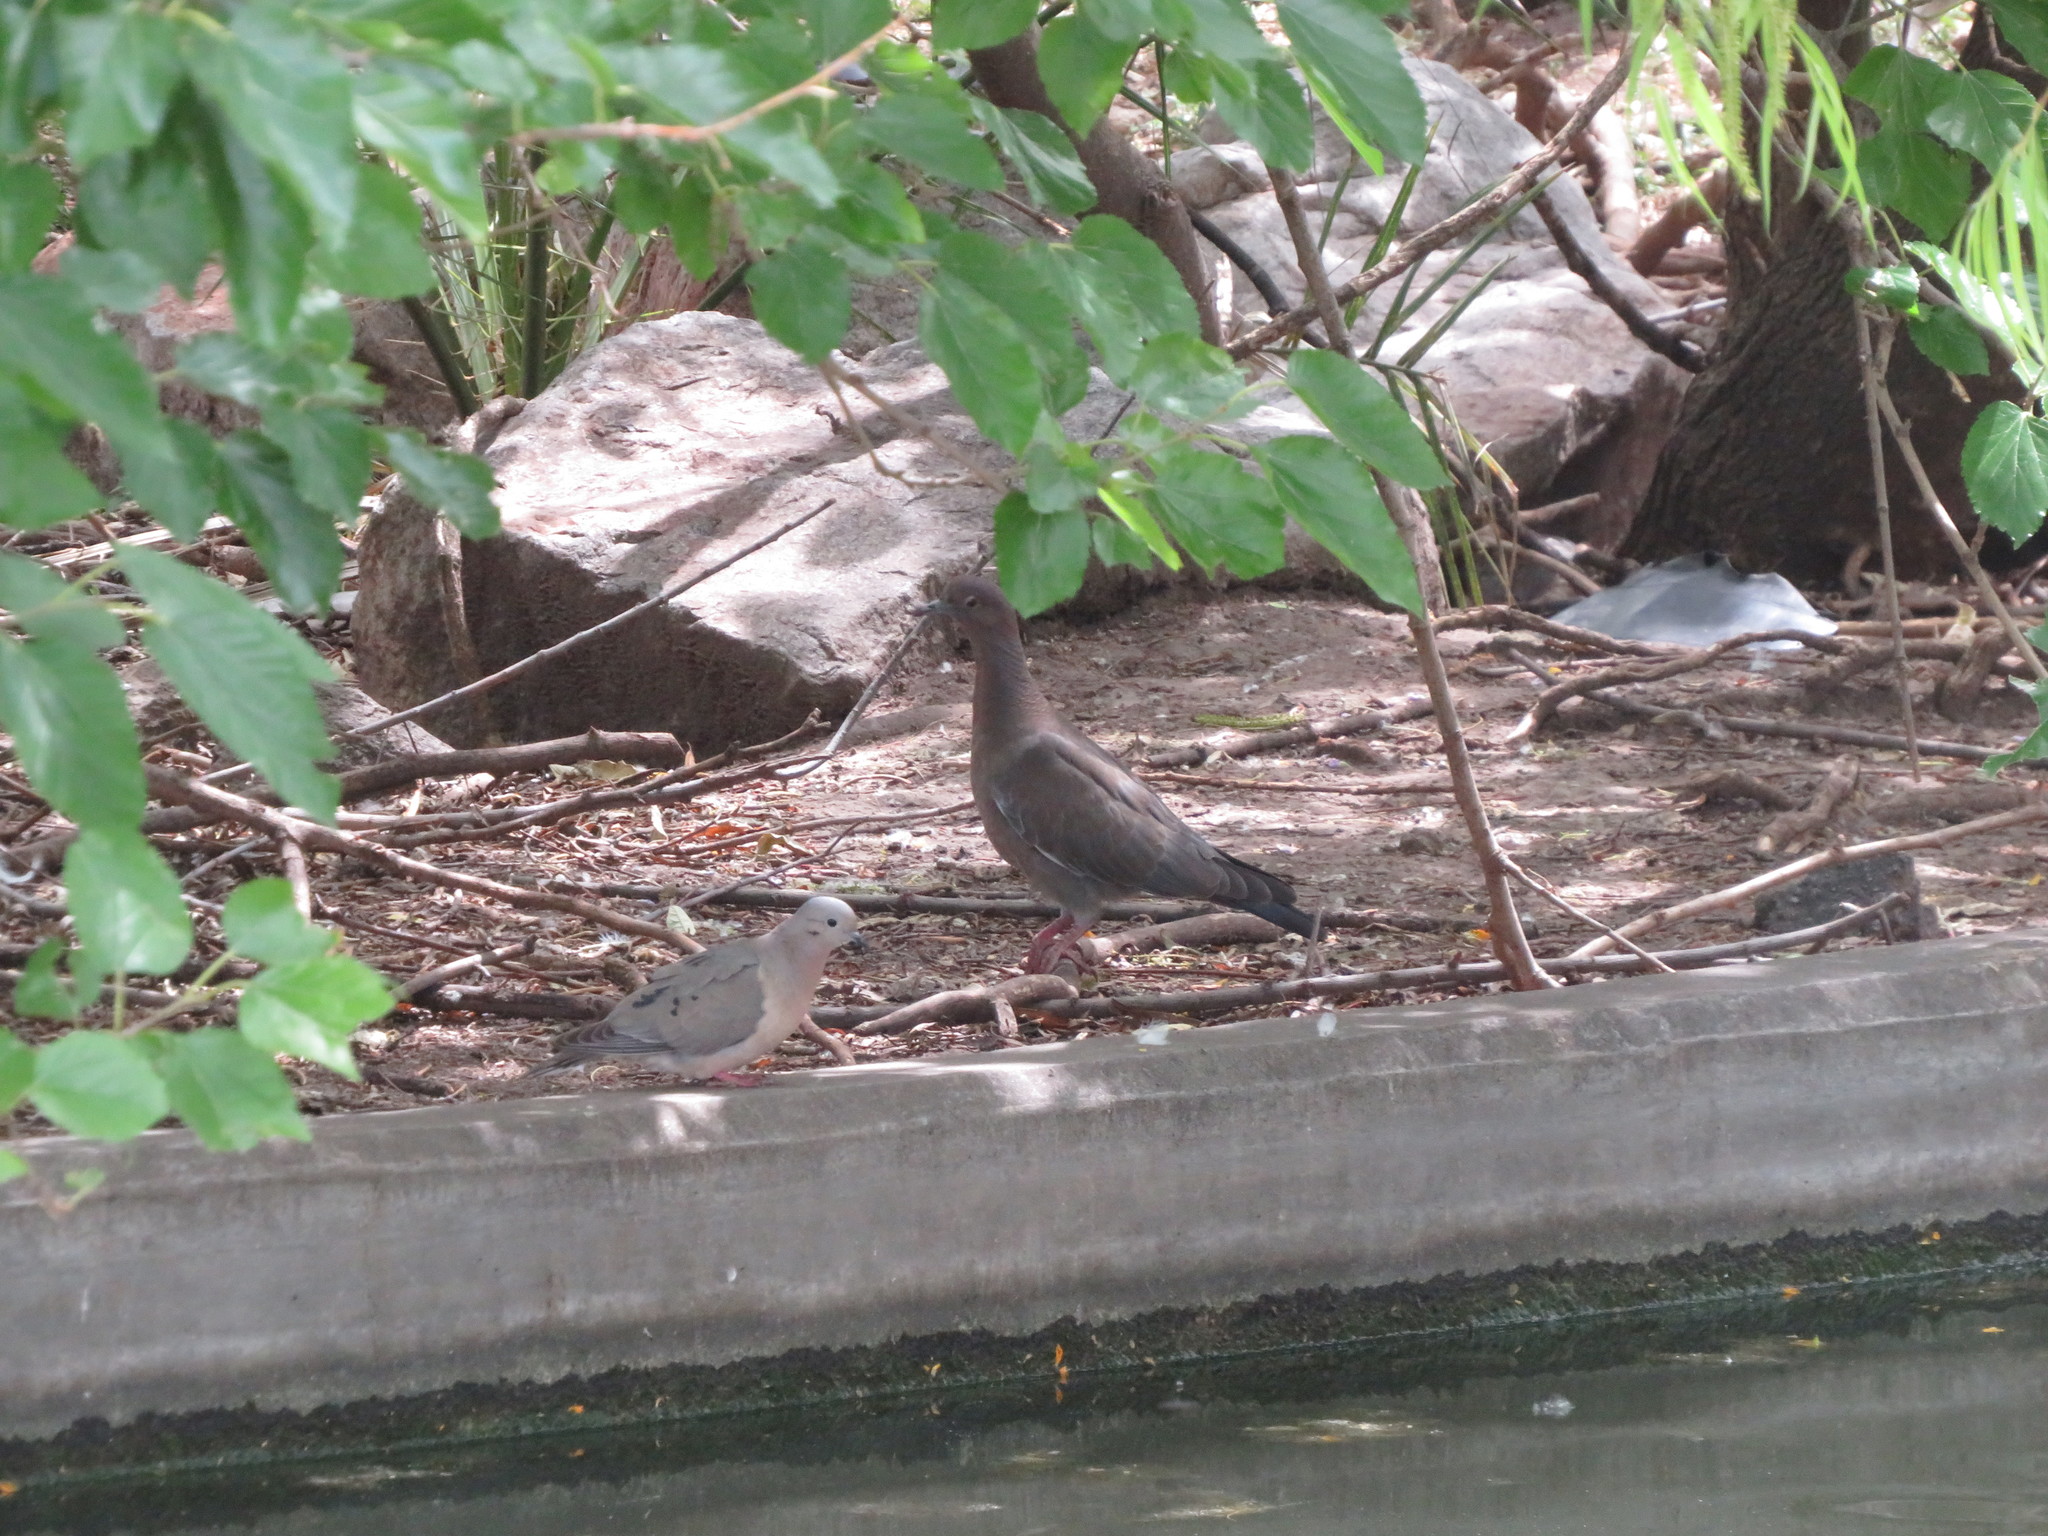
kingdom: Animalia
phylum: Chordata
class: Aves
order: Columbiformes
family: Columbidae
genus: Zenaida
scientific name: Zenaida auriculata
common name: Eared dove
